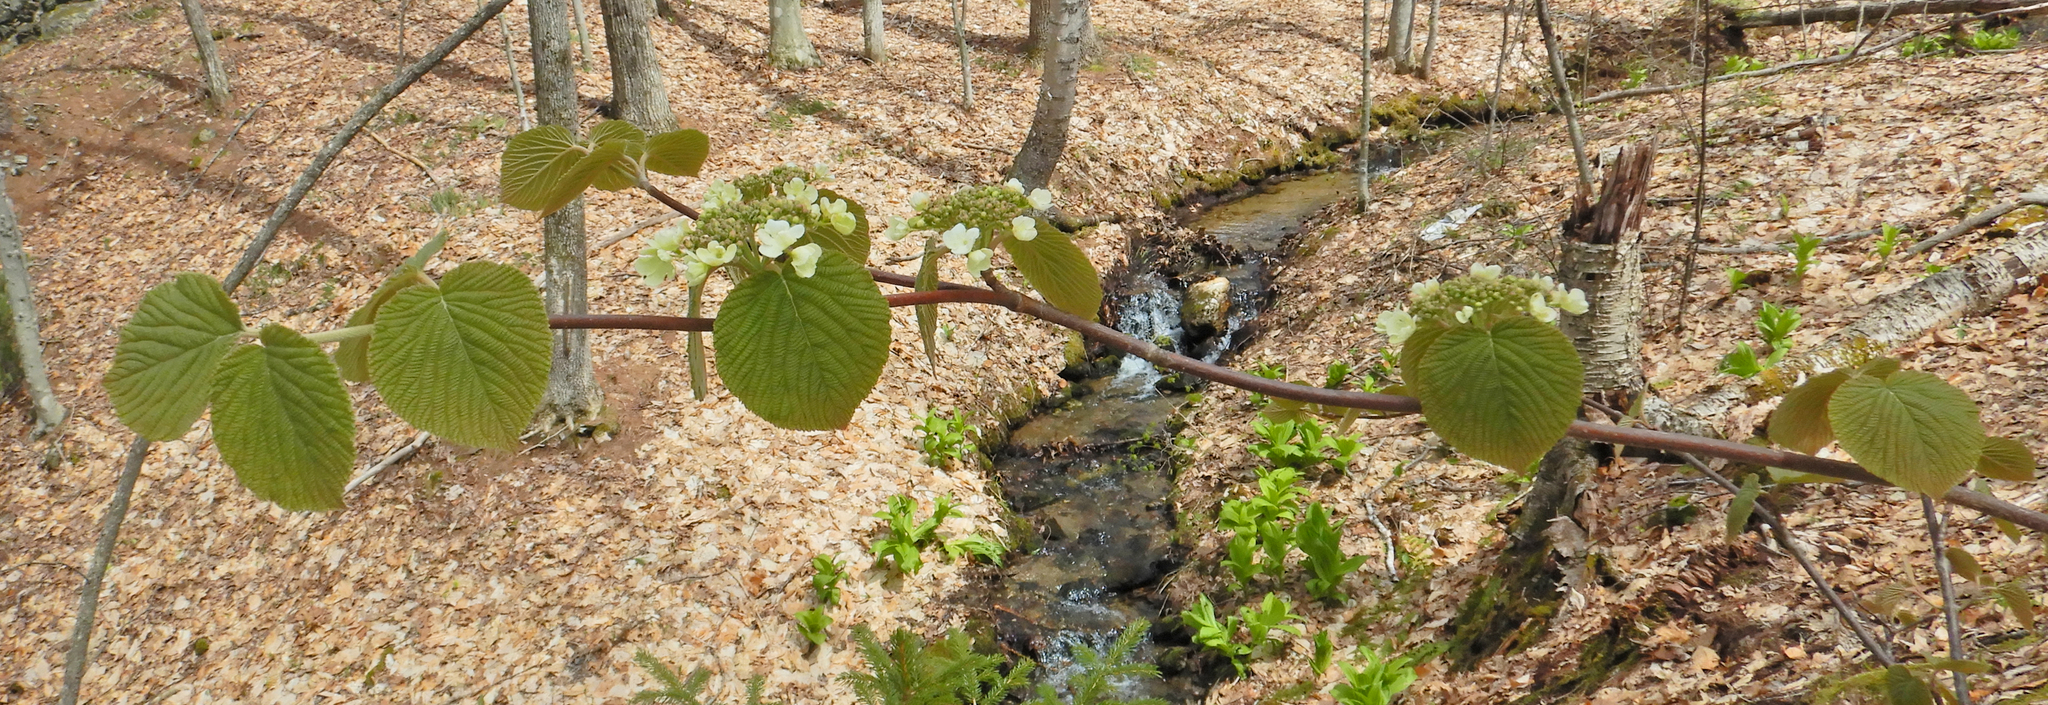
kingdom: Plantae
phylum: Tracheophyta
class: Magnoliopsida
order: Dipsacales
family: Viburnaceae
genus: Viburnum
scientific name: Viburnum lantanoides
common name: Hobblebush
